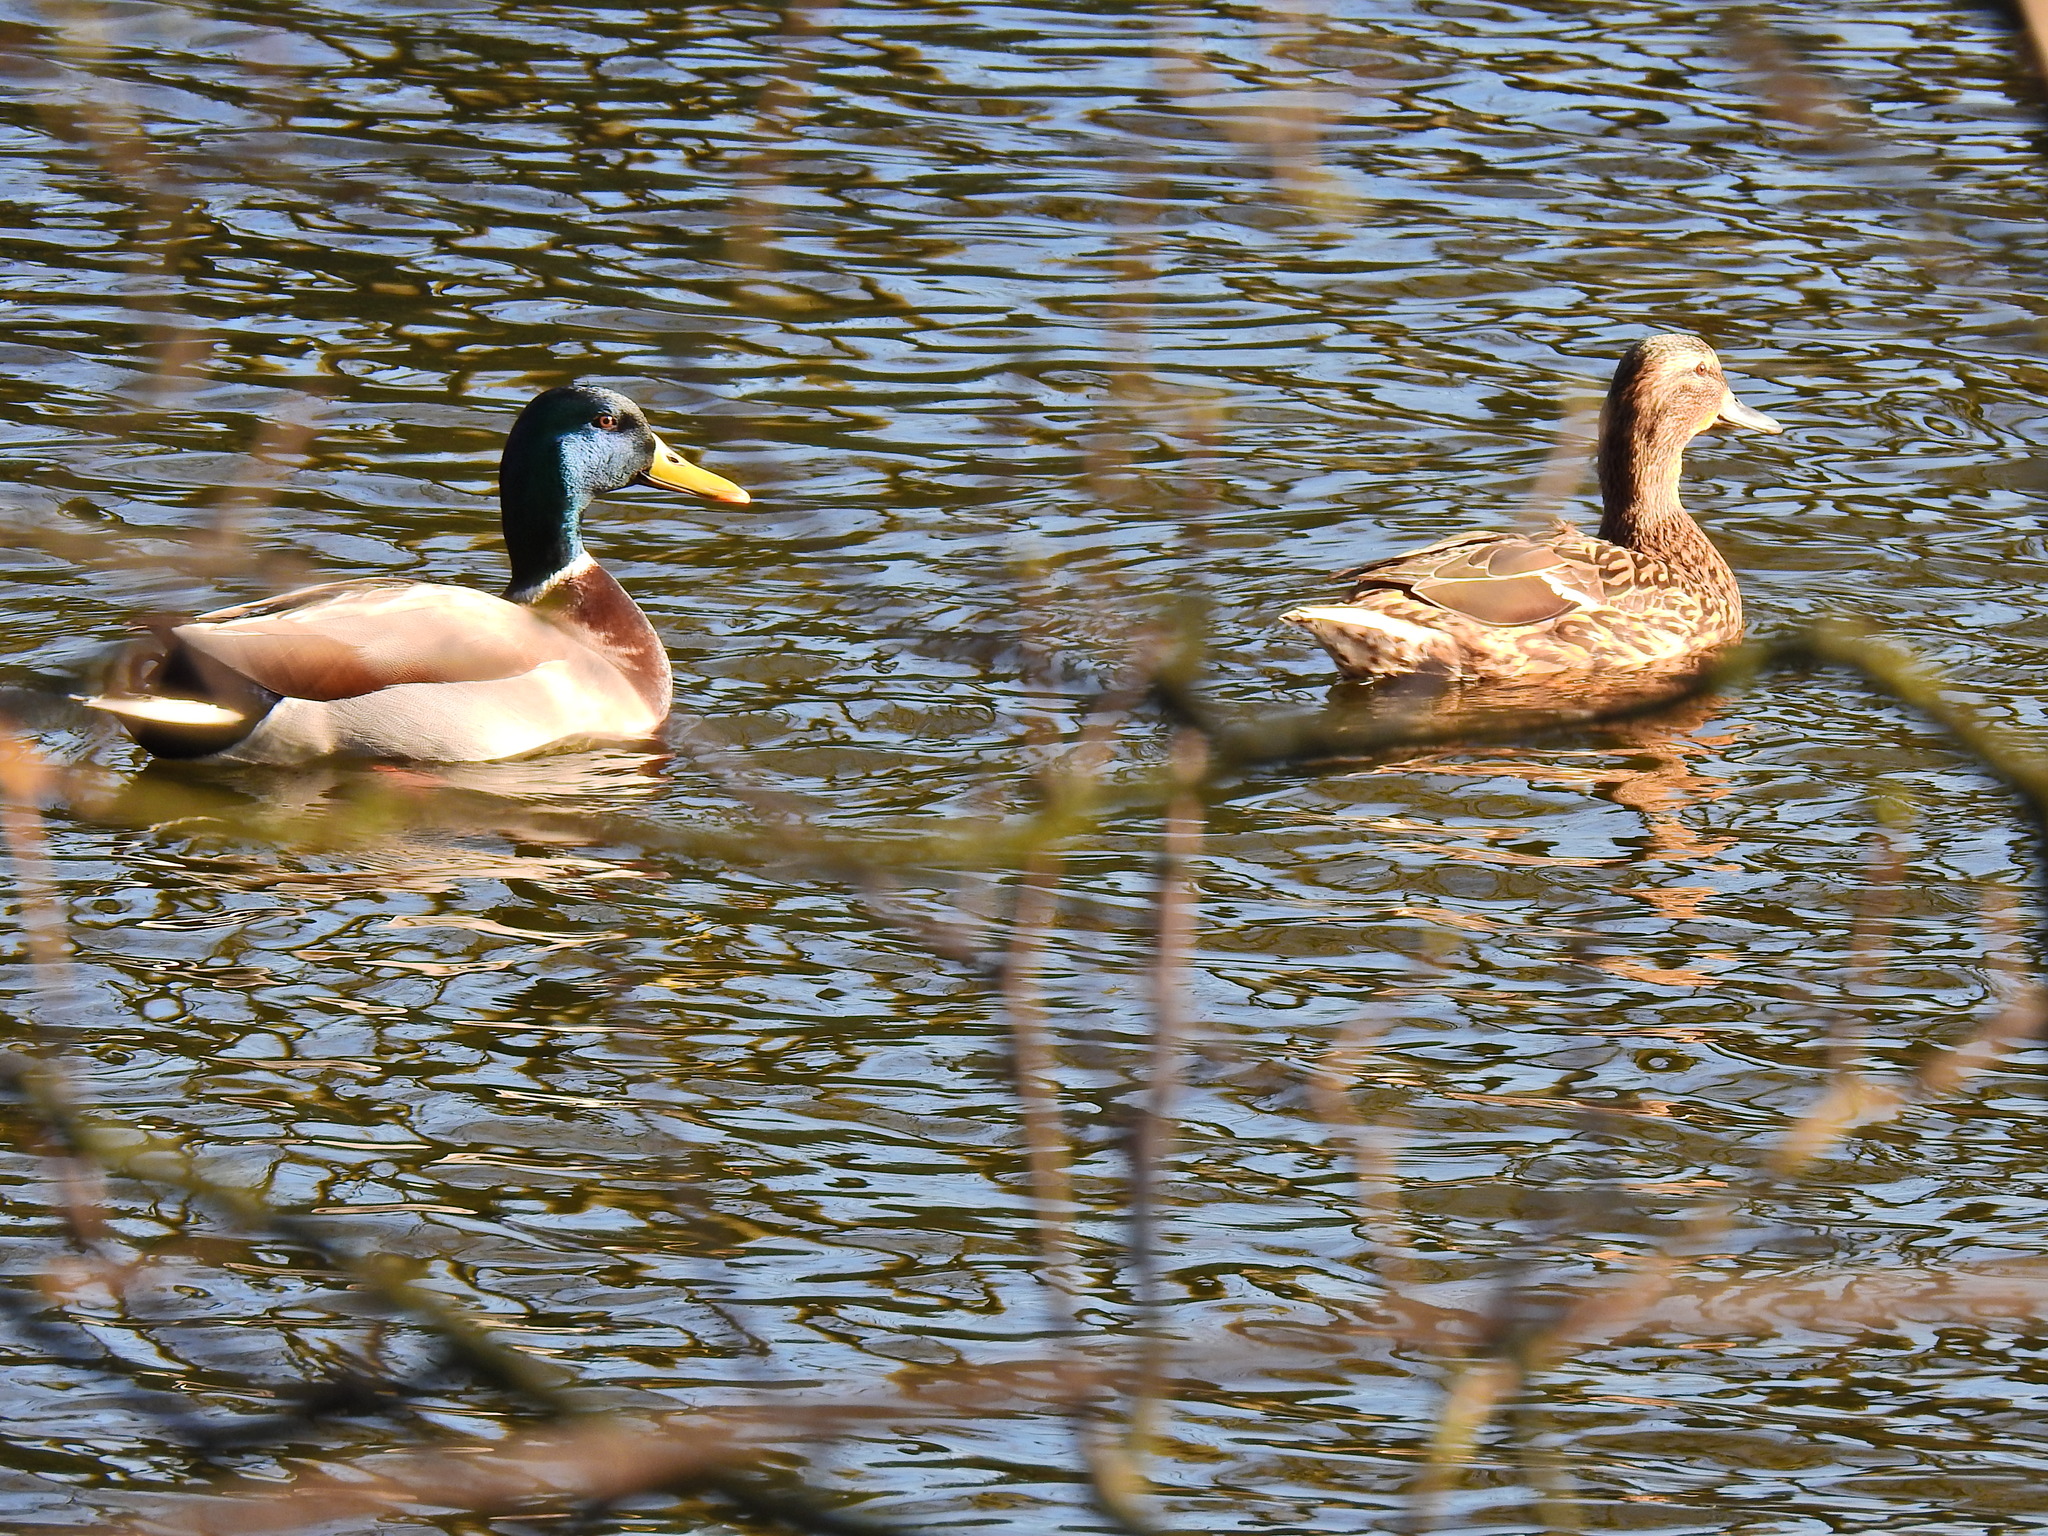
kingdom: Animalia
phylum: Chordata
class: Aves
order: Anseriformes
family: Anatidae
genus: Anas
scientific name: Anas platyrhynchos
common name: Mallard
